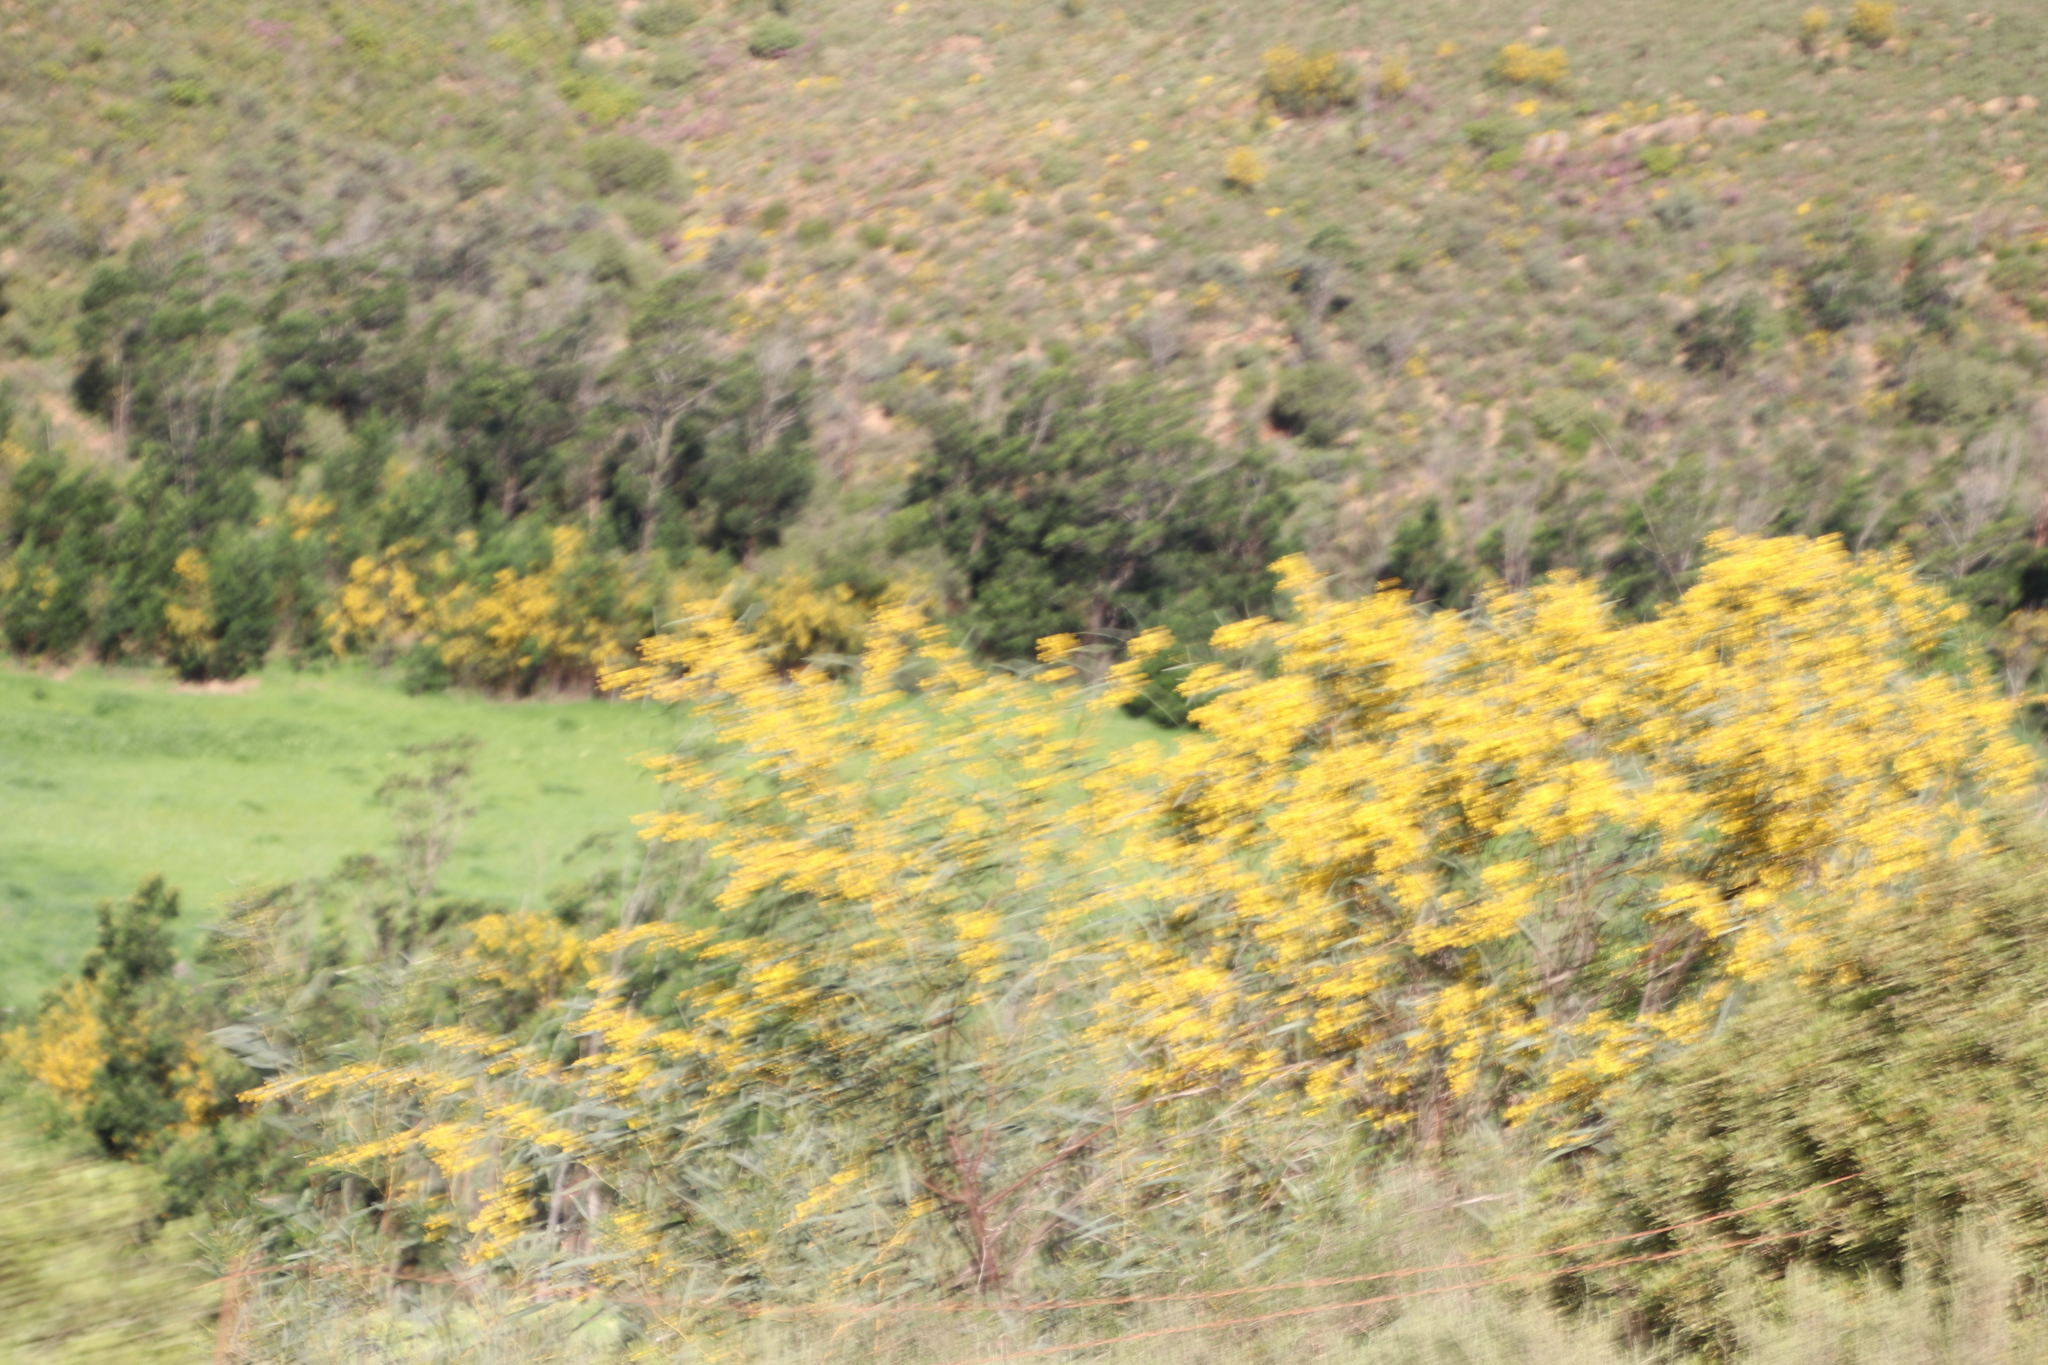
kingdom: Plantae
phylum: Tracheophyta
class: Magnoliopsida
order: Fabales
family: Fabaceae
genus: Acacia
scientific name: Acacia saligna
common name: Orange wattle
